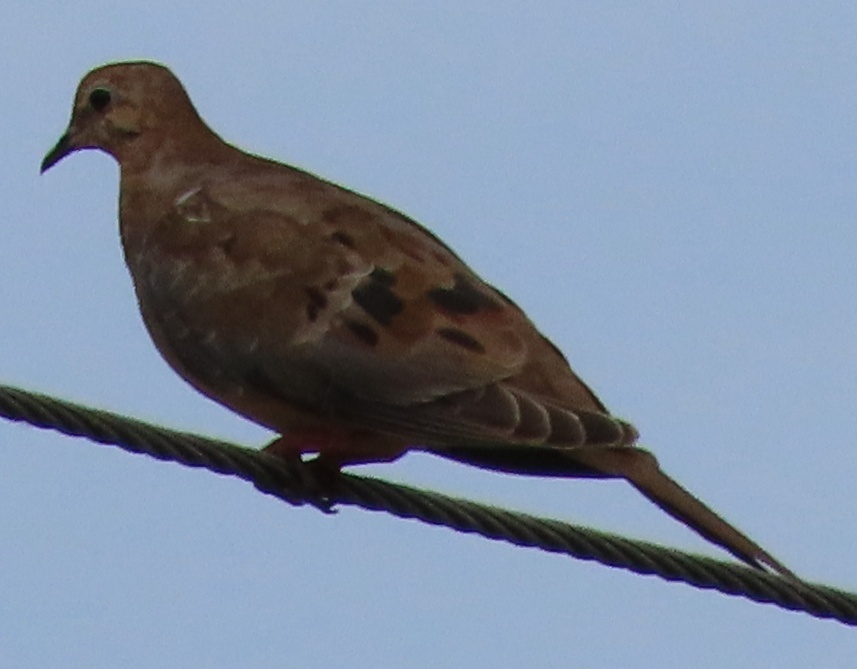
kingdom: Animalia
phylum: Chordata
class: Aves
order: Columbiformes
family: Columbidae
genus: Zenaida
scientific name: Zenaida macroura
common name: Mourning dove
